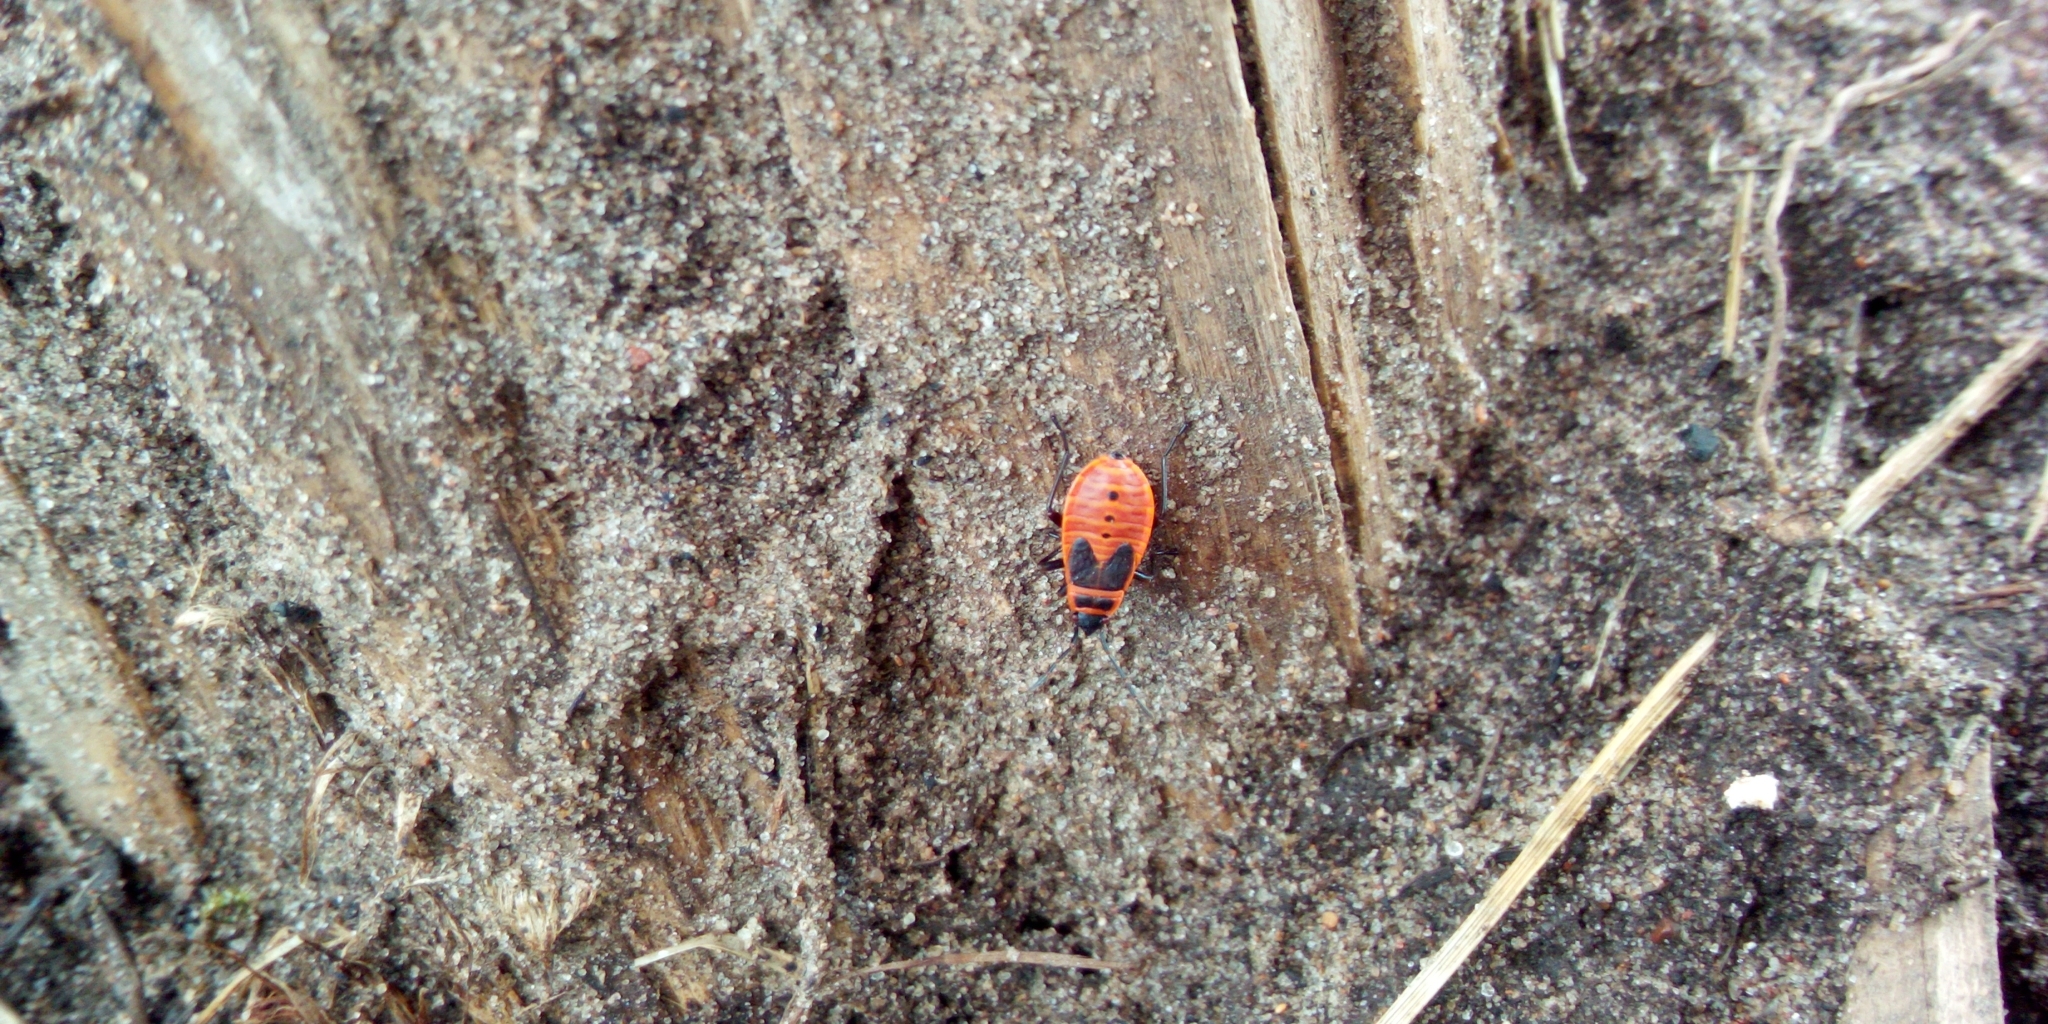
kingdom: Animalia
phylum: Arthropoda
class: Insecta
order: Hemiptera
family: Pyrrhocoridae
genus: Pyrrhocoris
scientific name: Pyrrhocoris apterus
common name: Firebug
